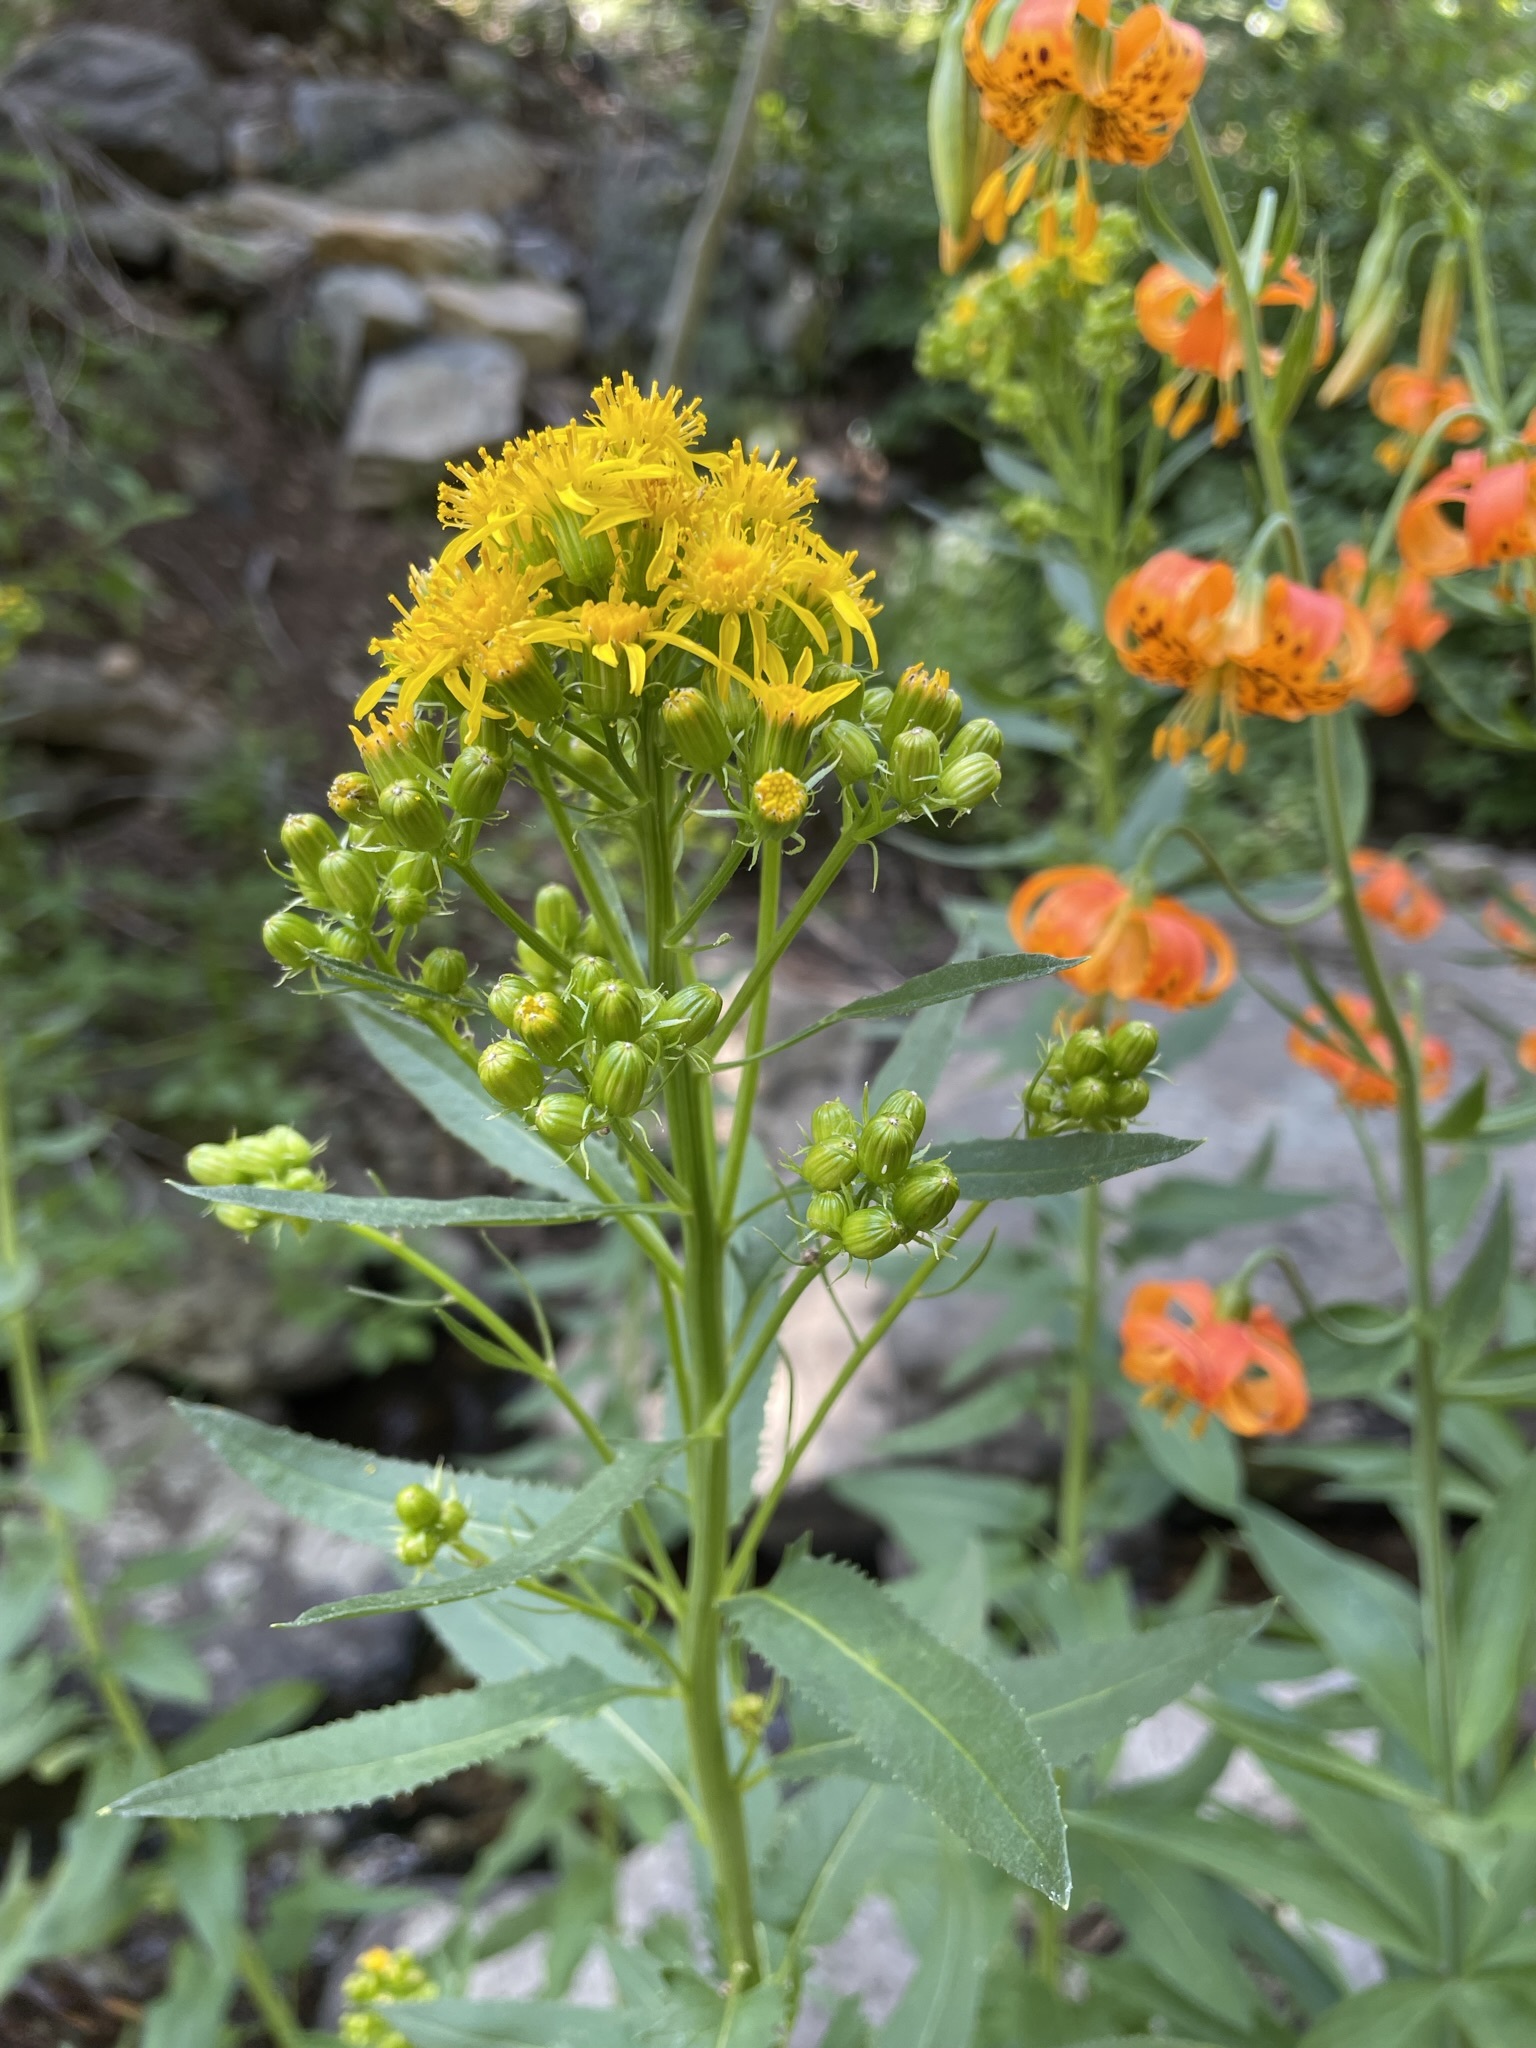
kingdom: Plantae
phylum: Tracheophyta
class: Magnoliopsida
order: Asterales
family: Asteraceae
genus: Senecio
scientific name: Senecio triangularis
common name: Arrowleaf butterweed
